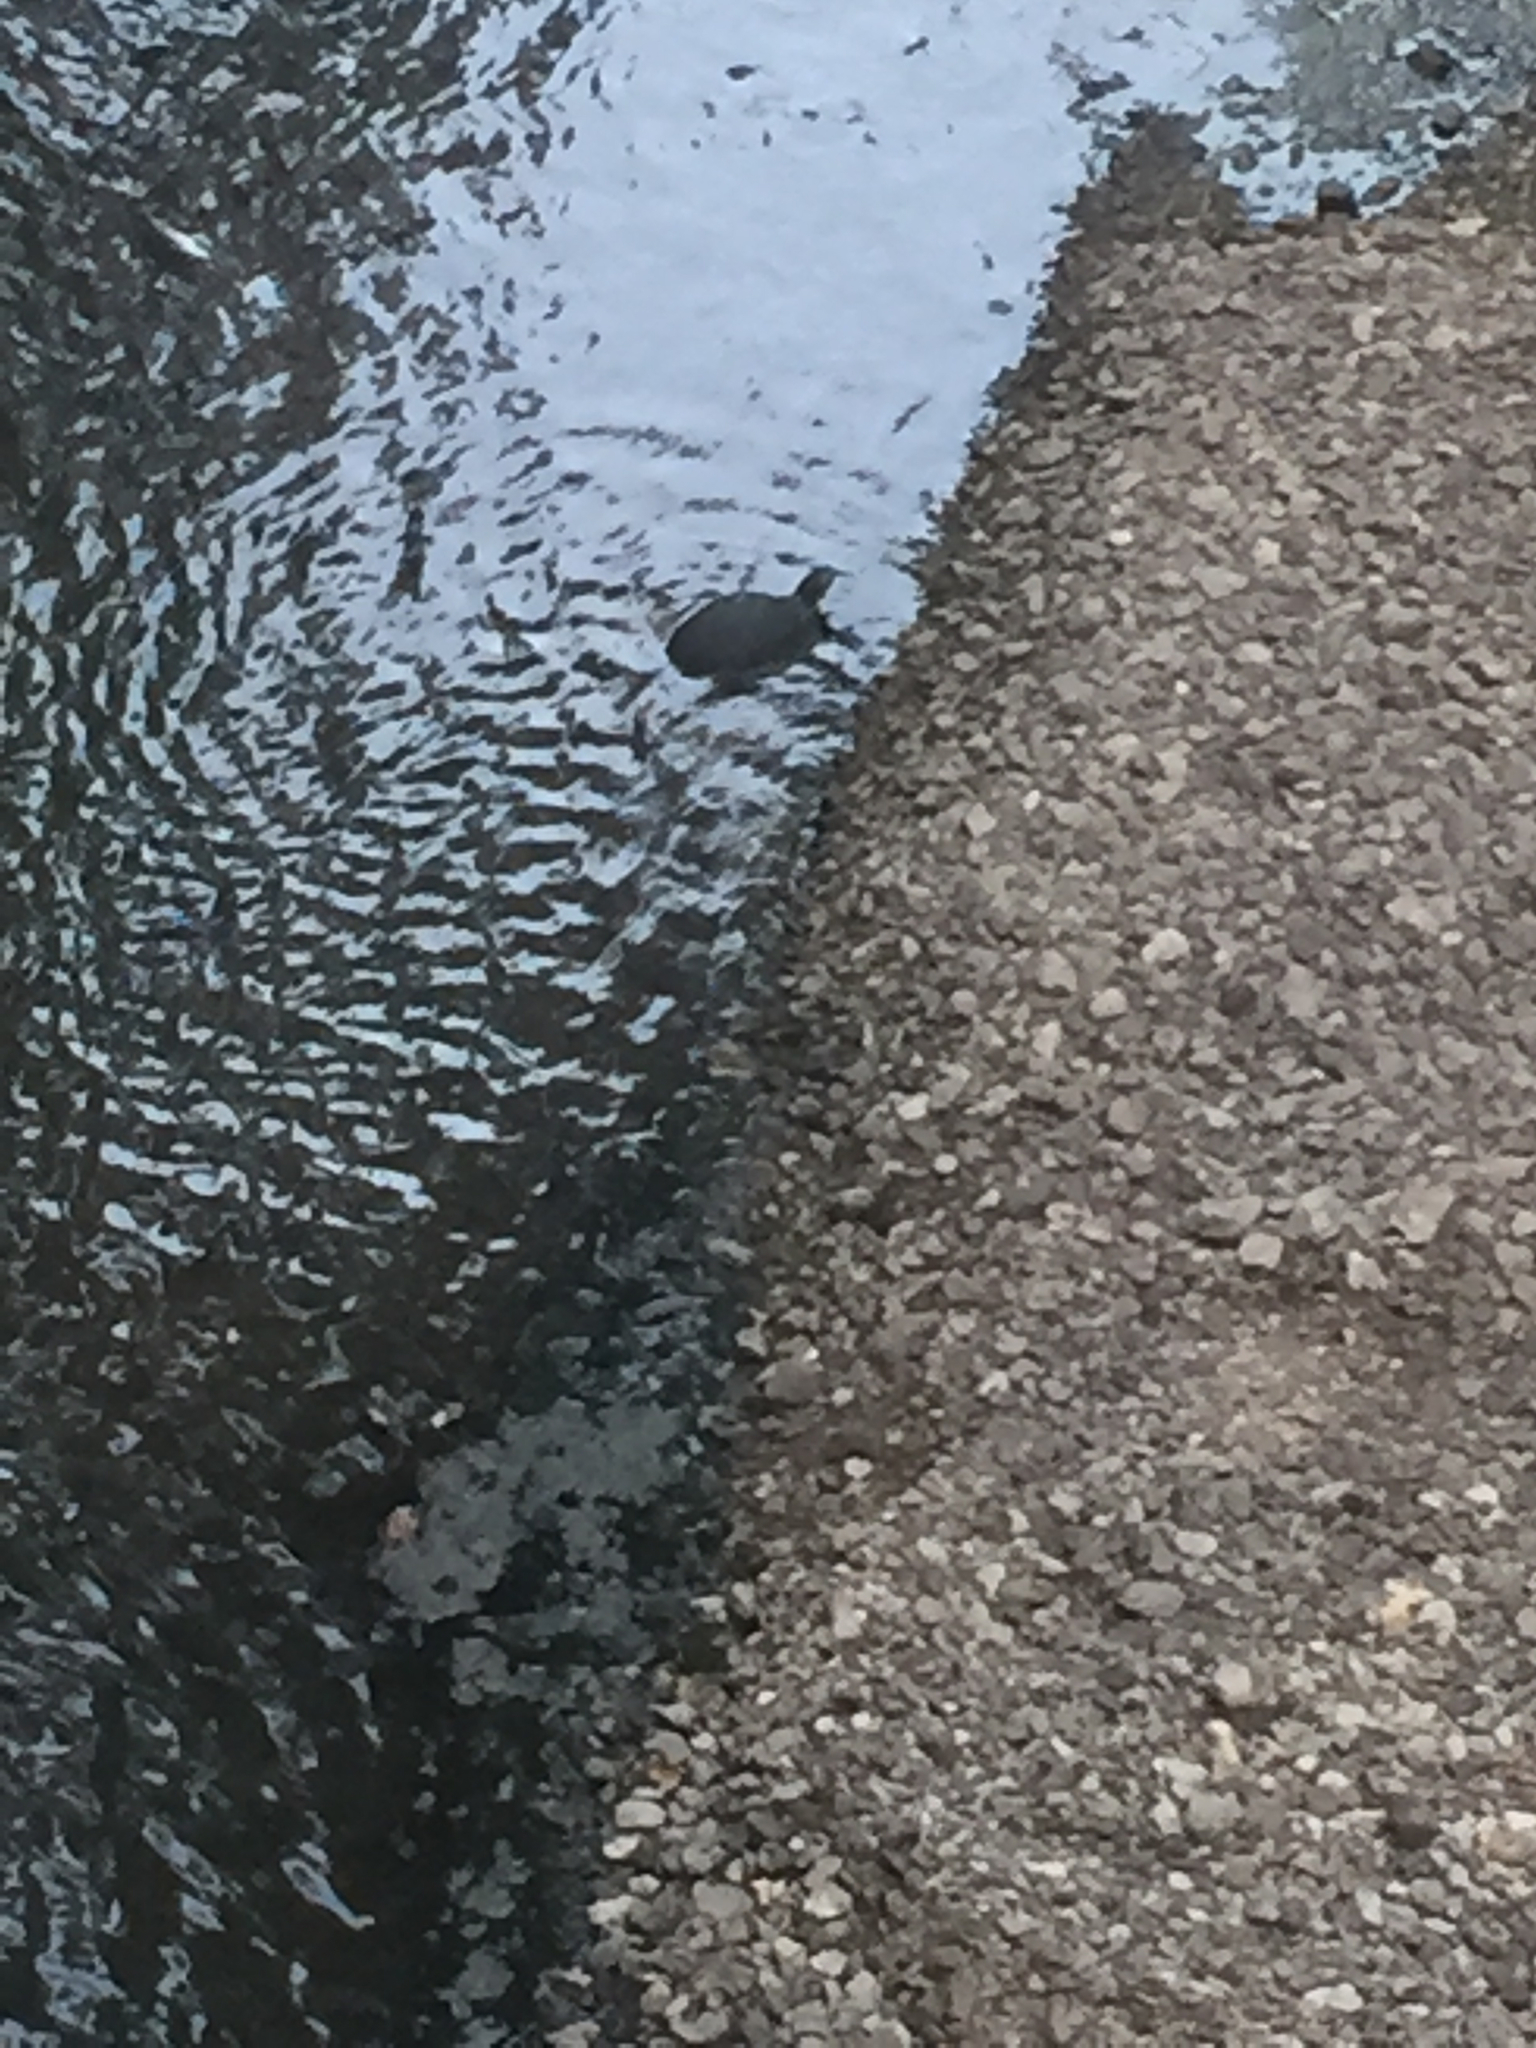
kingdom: Animalia
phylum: Chordata
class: Testudines
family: Emydidae
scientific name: Emydidae
